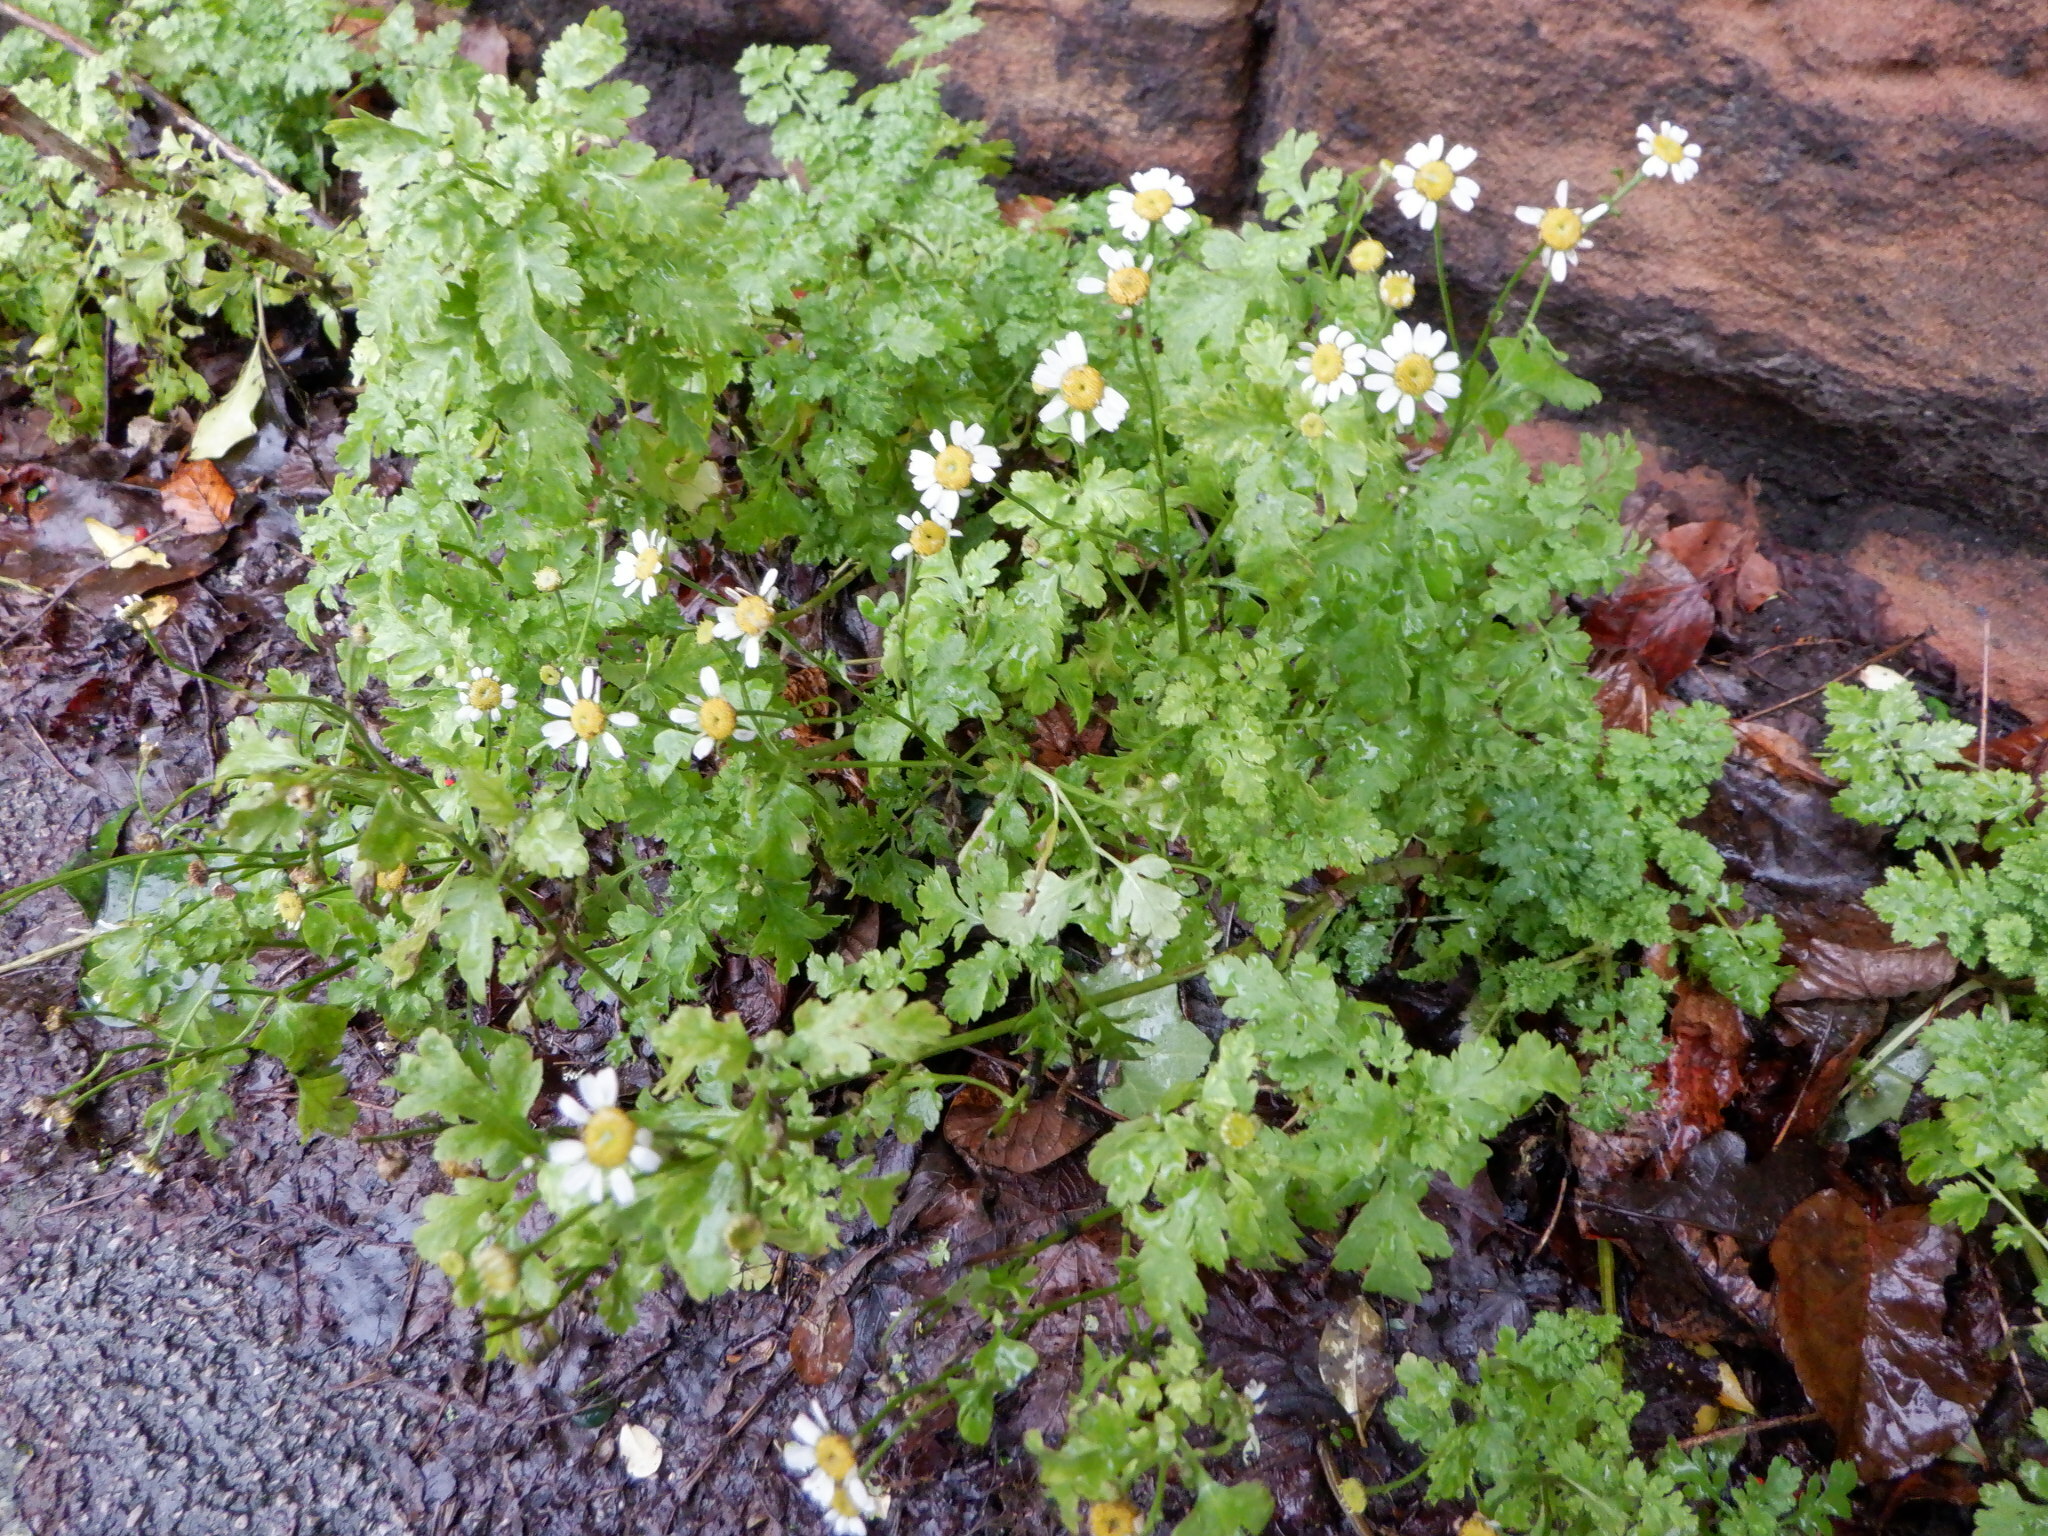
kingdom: Plantae
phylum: Tracheophyta
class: Magnoliopsida
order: Asterales
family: Asteraceae
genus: Tanacetum
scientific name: Tanacetum parthenium
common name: Feverfew
